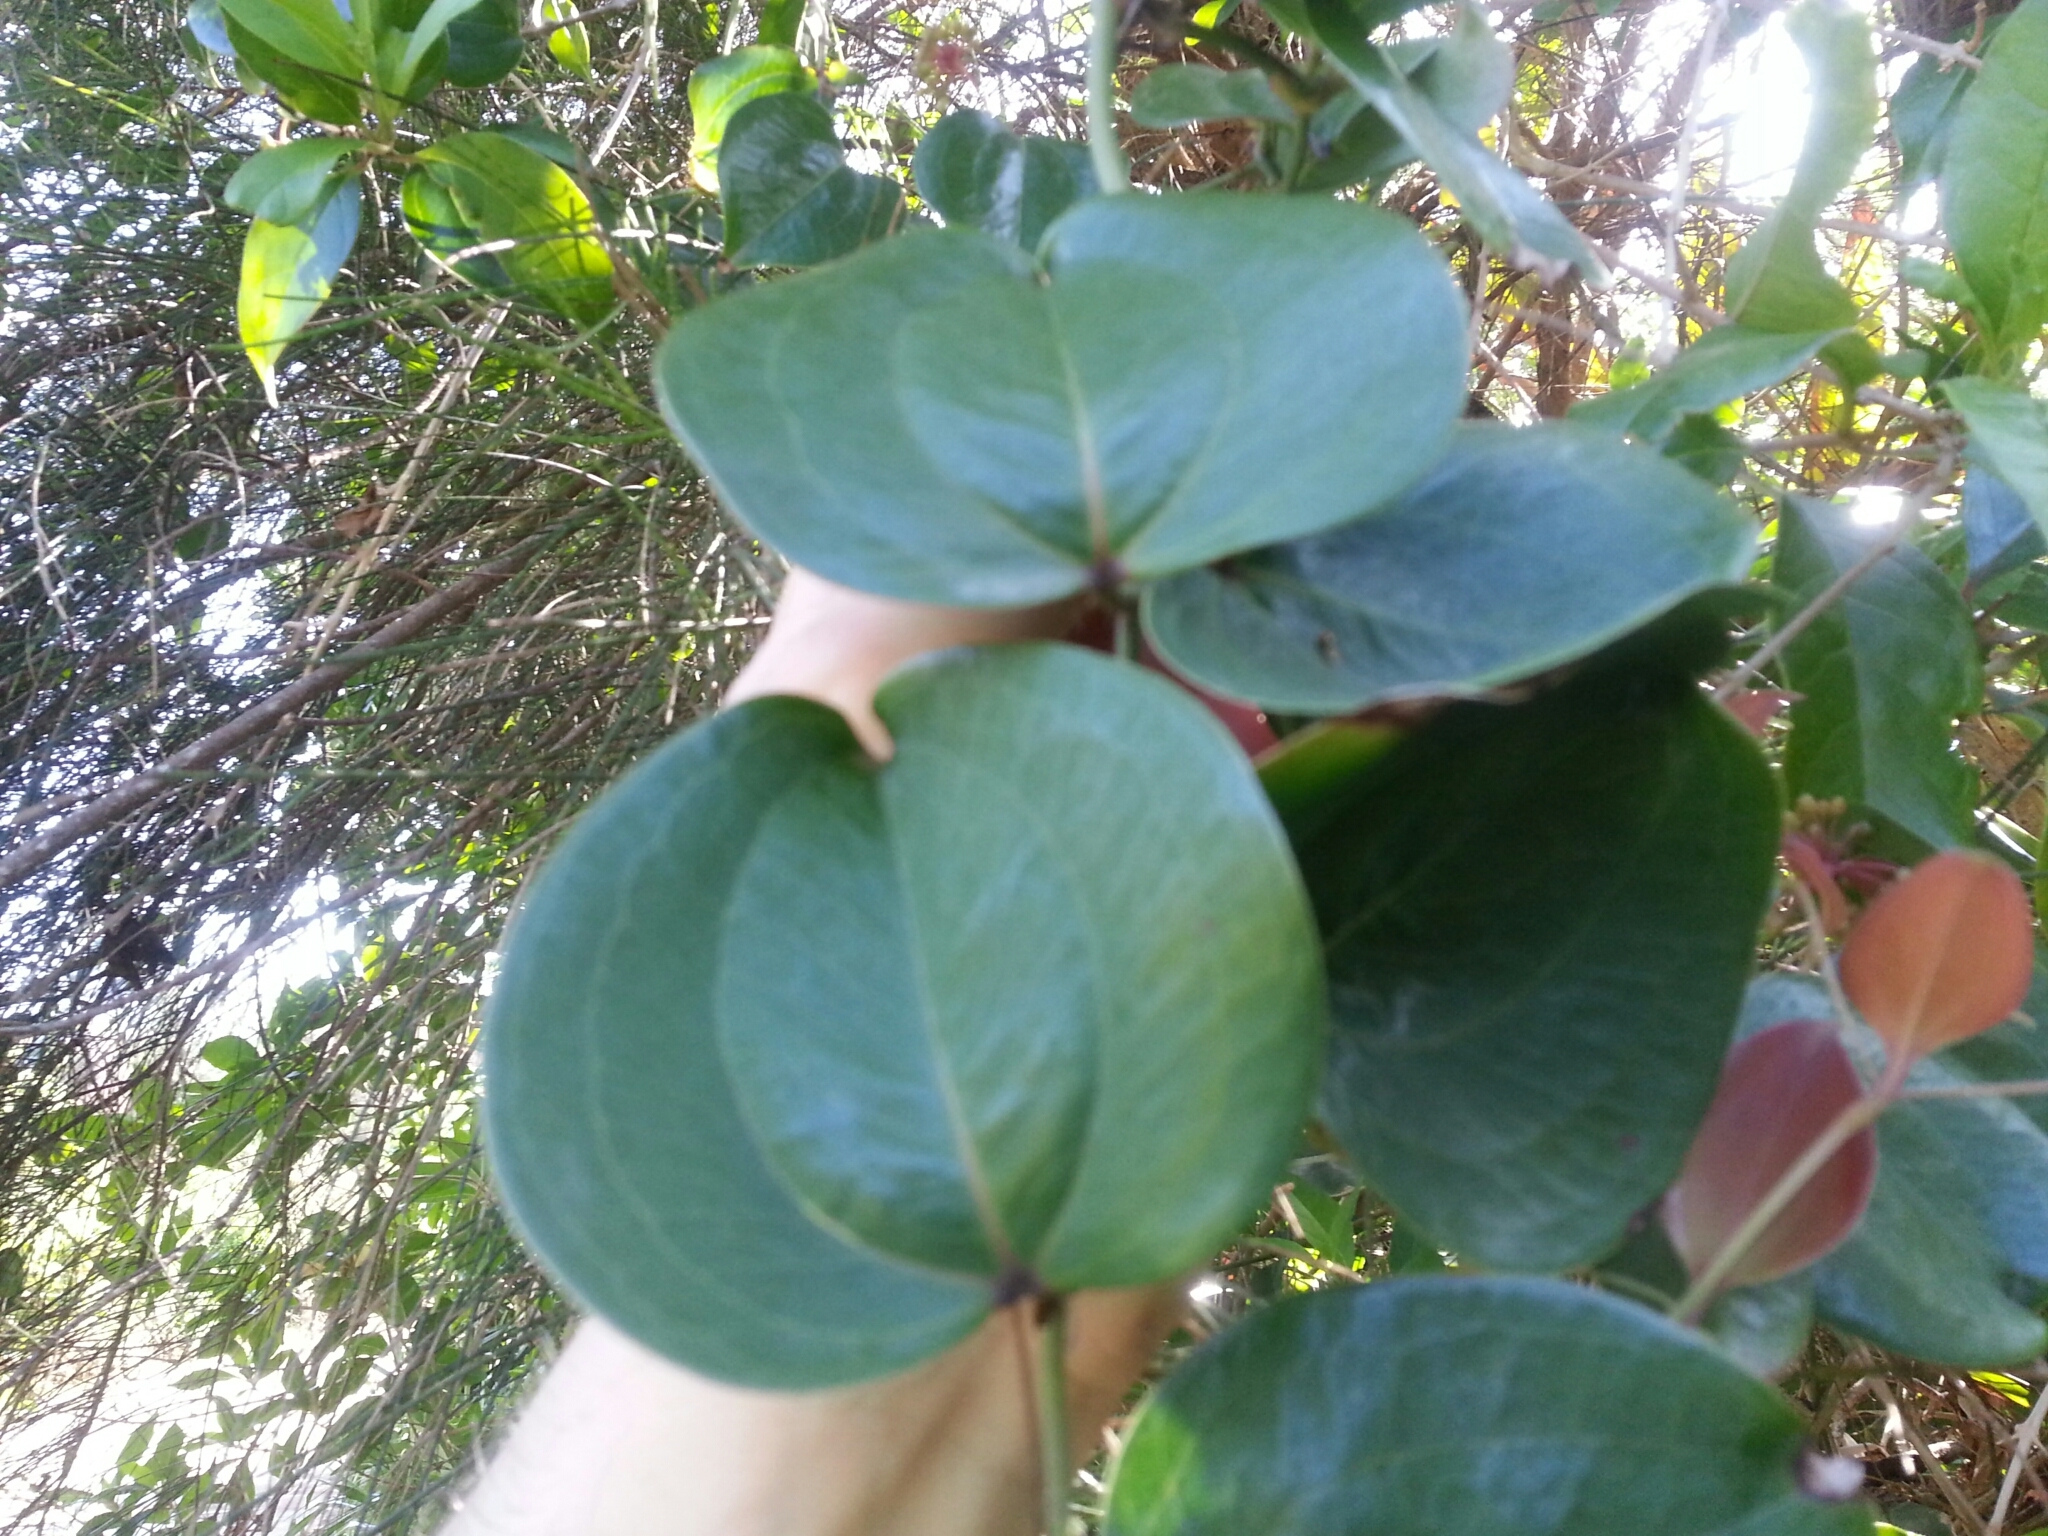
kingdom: Plantae
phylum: Tracheophyta
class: Liliopsida
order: Liliales
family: Smilacaceae
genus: Smilax
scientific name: Smilax sebeana
